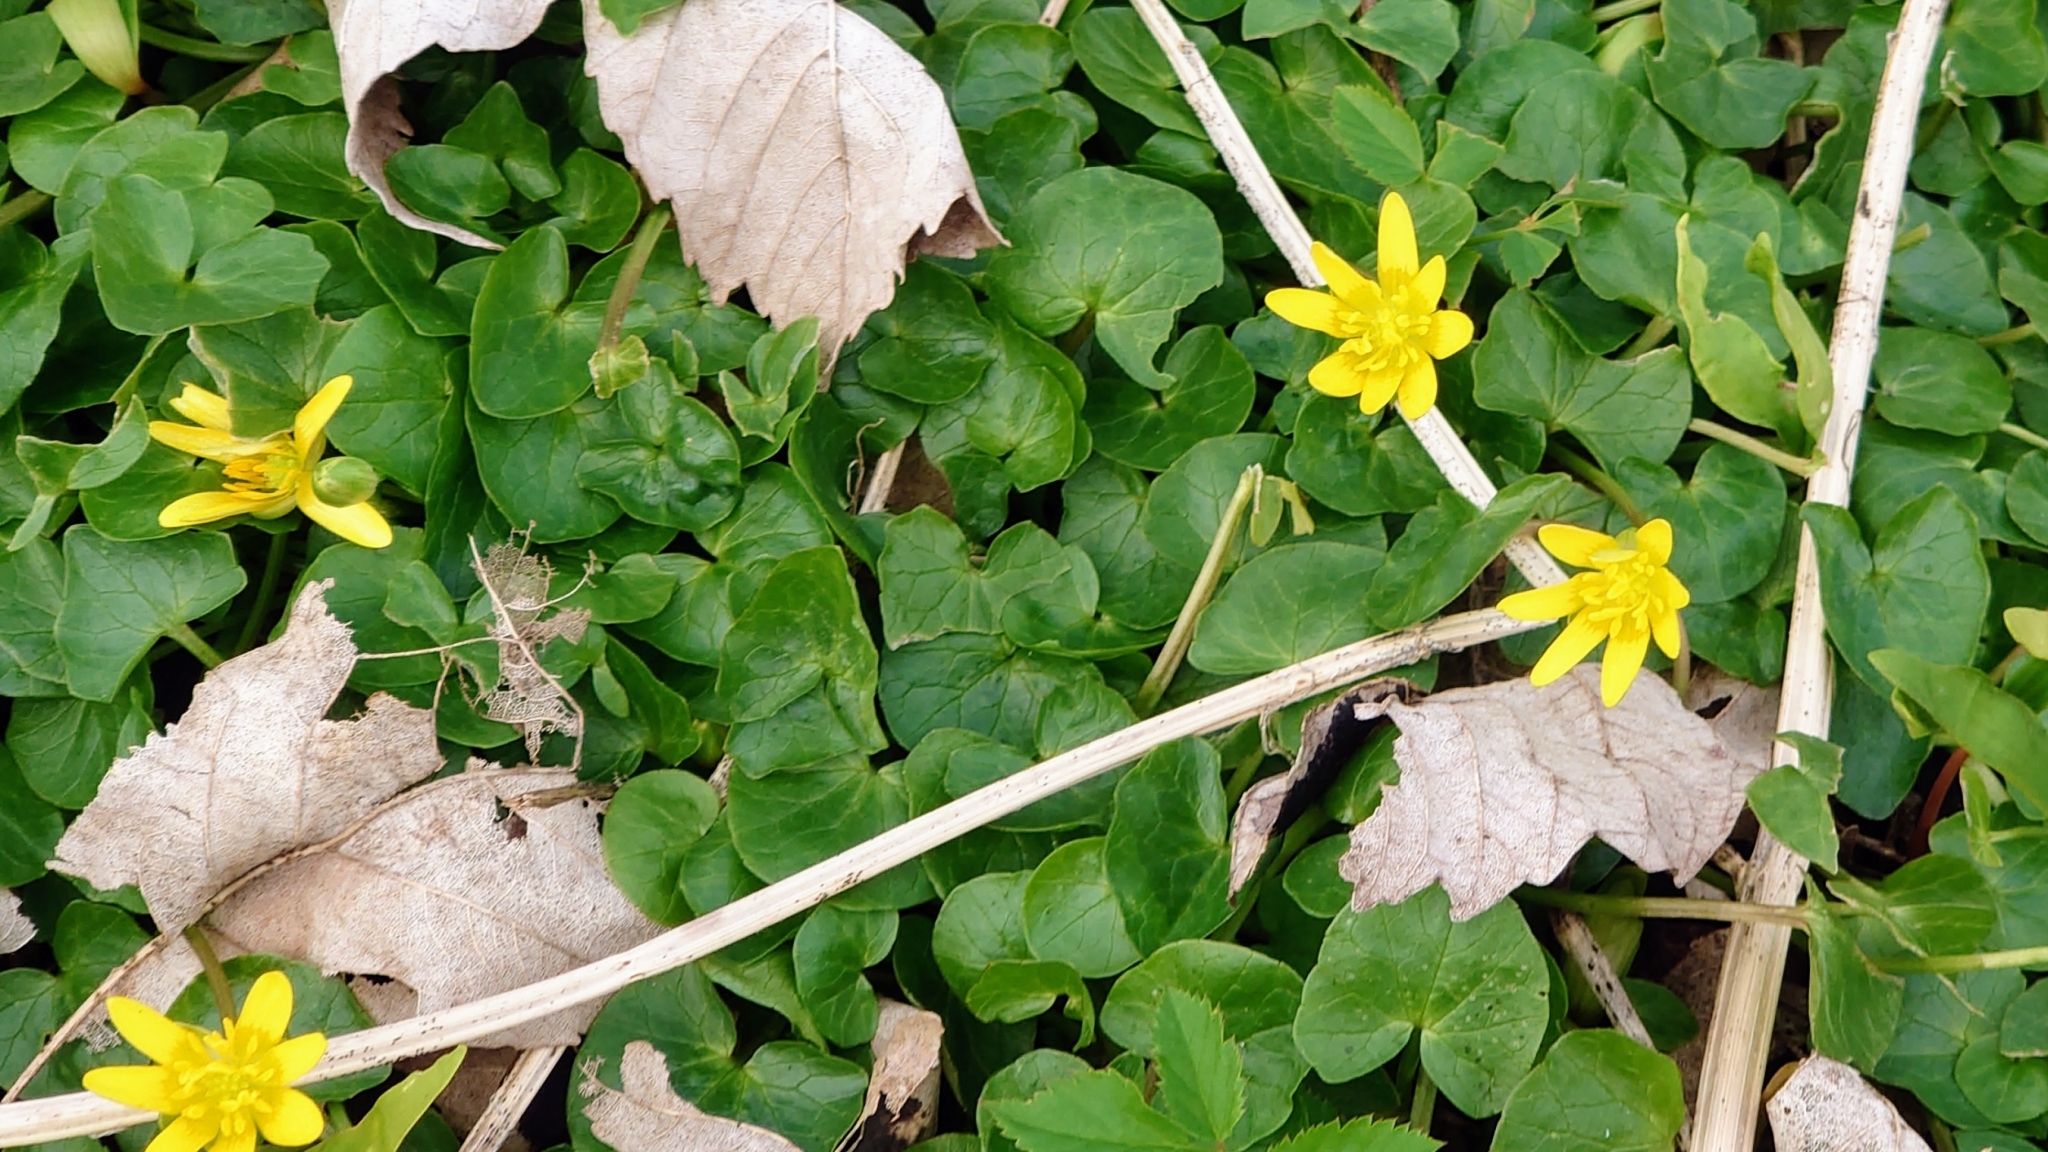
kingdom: Plantae
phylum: Tracheophyta
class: Magnoliopsida
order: Ranunculales
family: Ranunculaceae
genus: Ficaria
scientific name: Ficaria verna
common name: Lesser celandine
